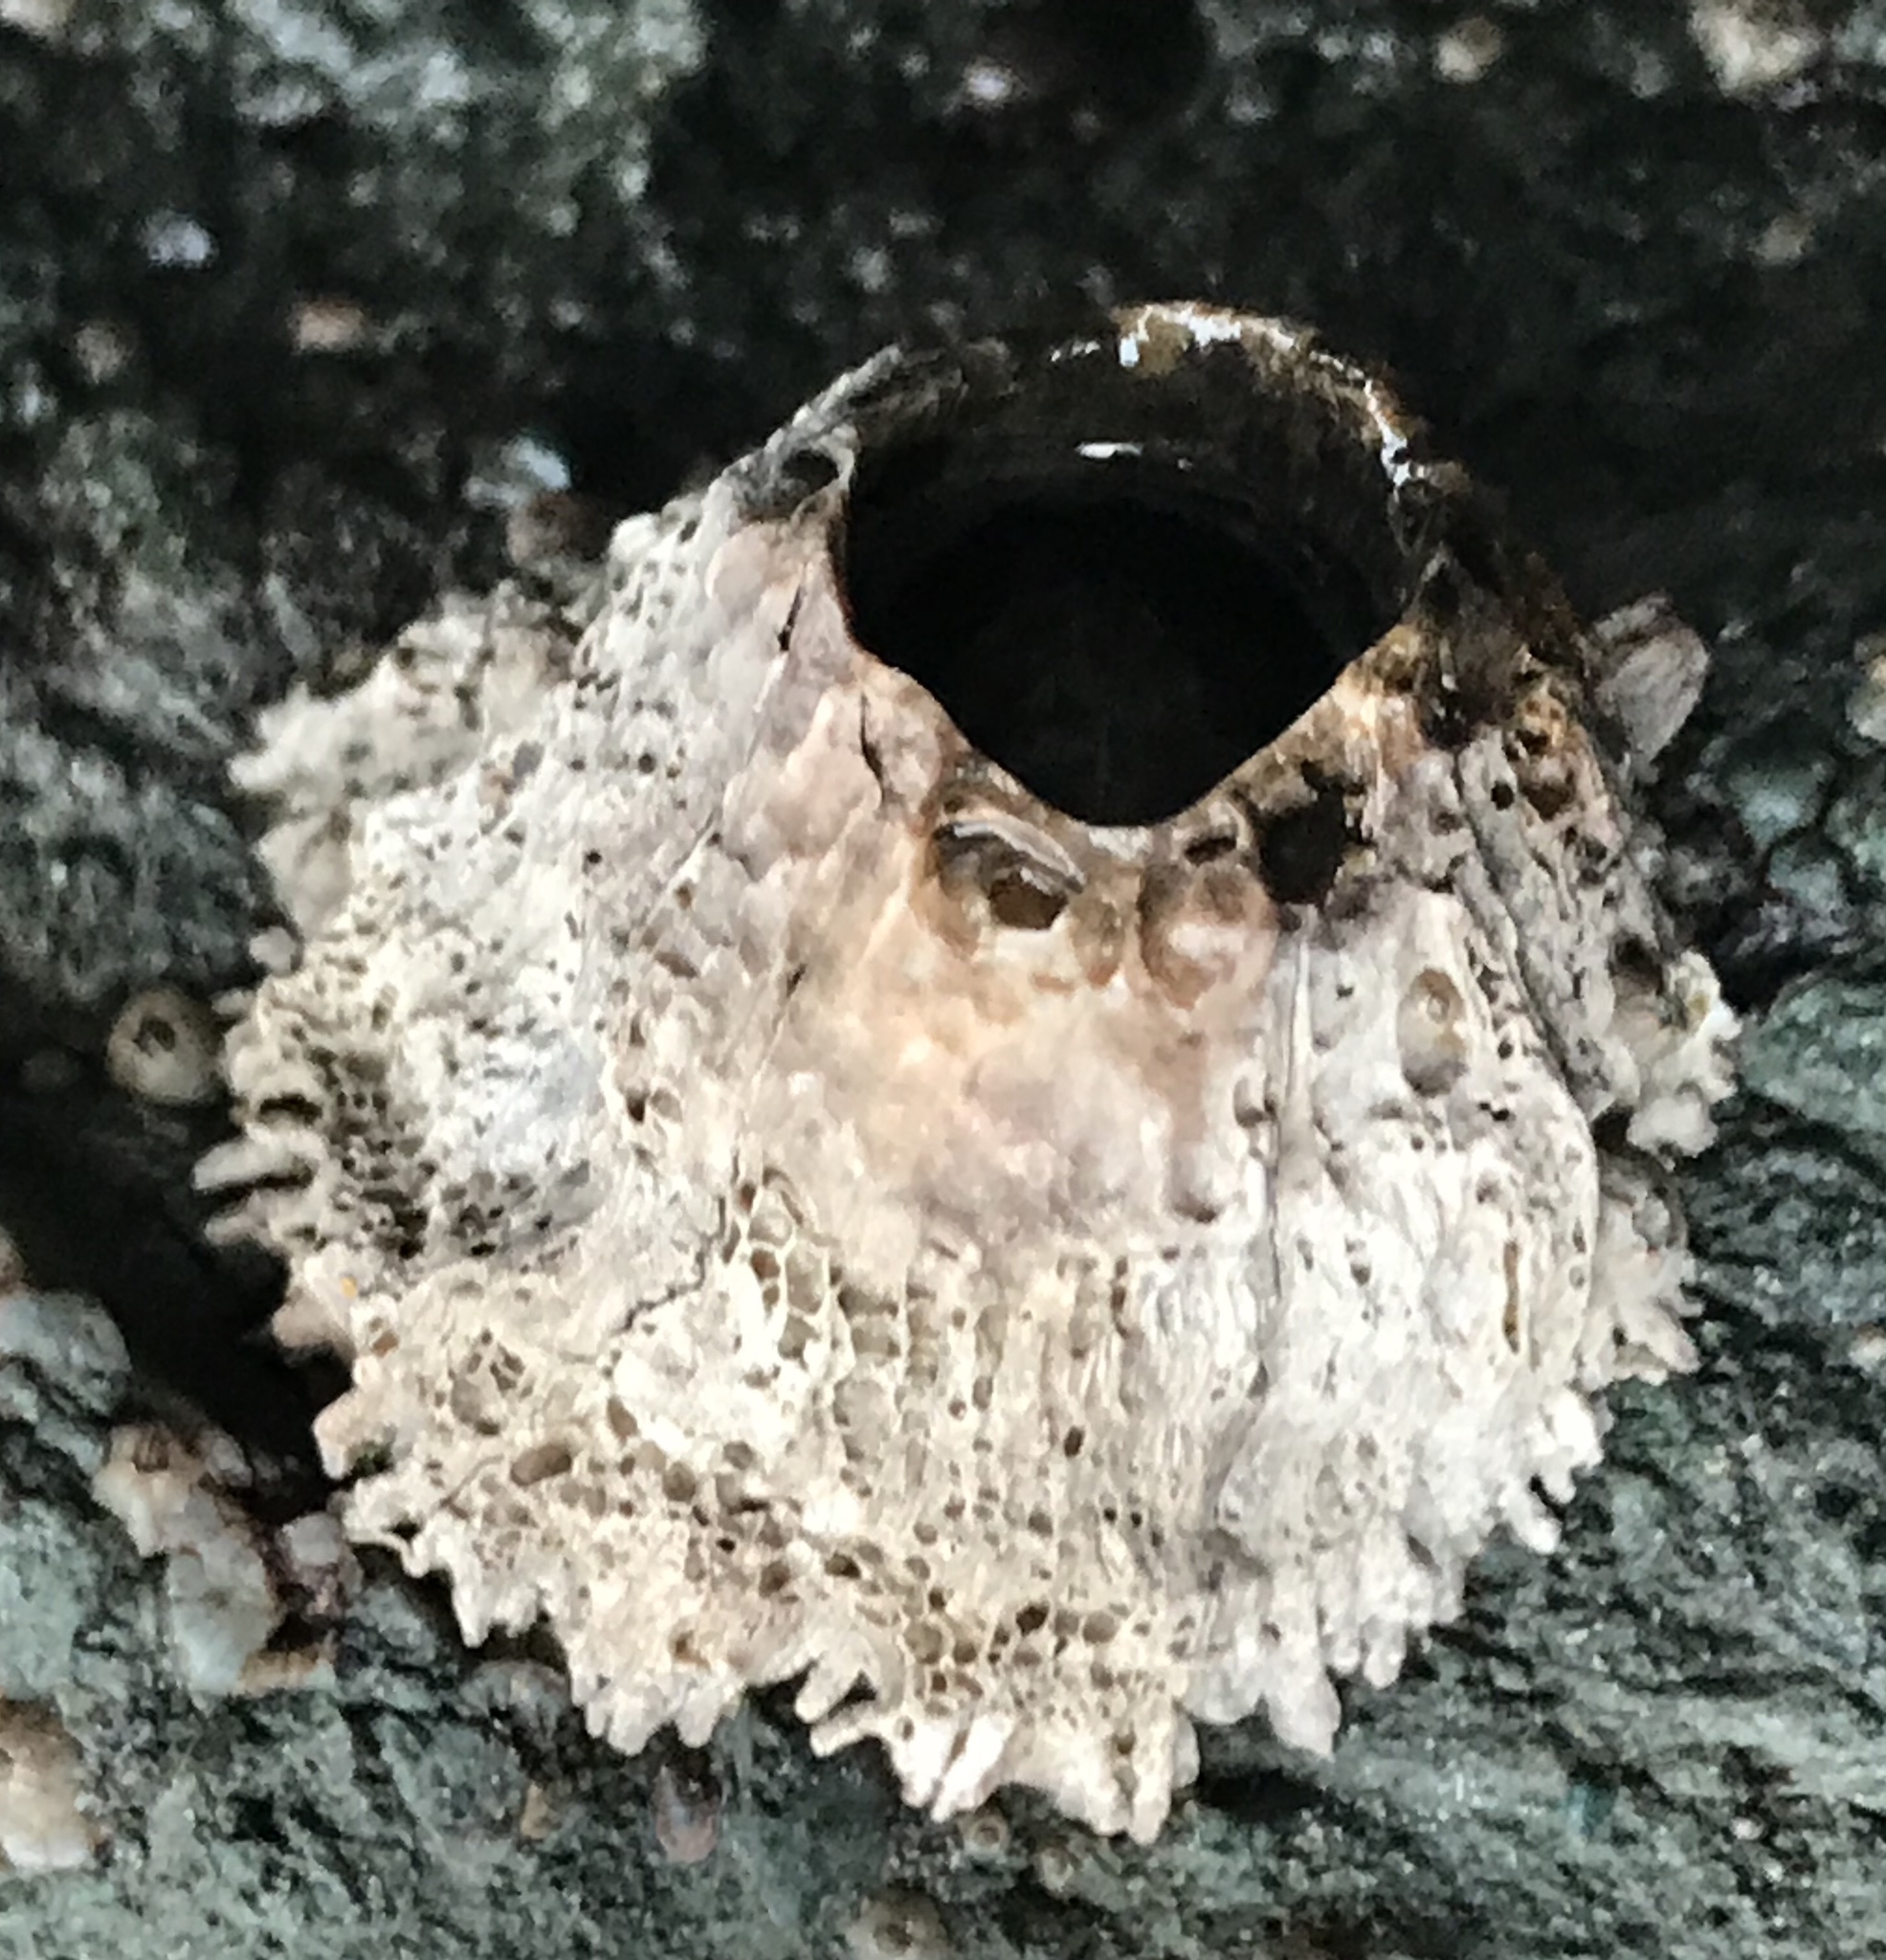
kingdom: Animalia
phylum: Arthropoda
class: Maxillopoda
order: Sessilia
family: Archaeobalanidae
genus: Semibalanus
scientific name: Semibalanus cariosus
